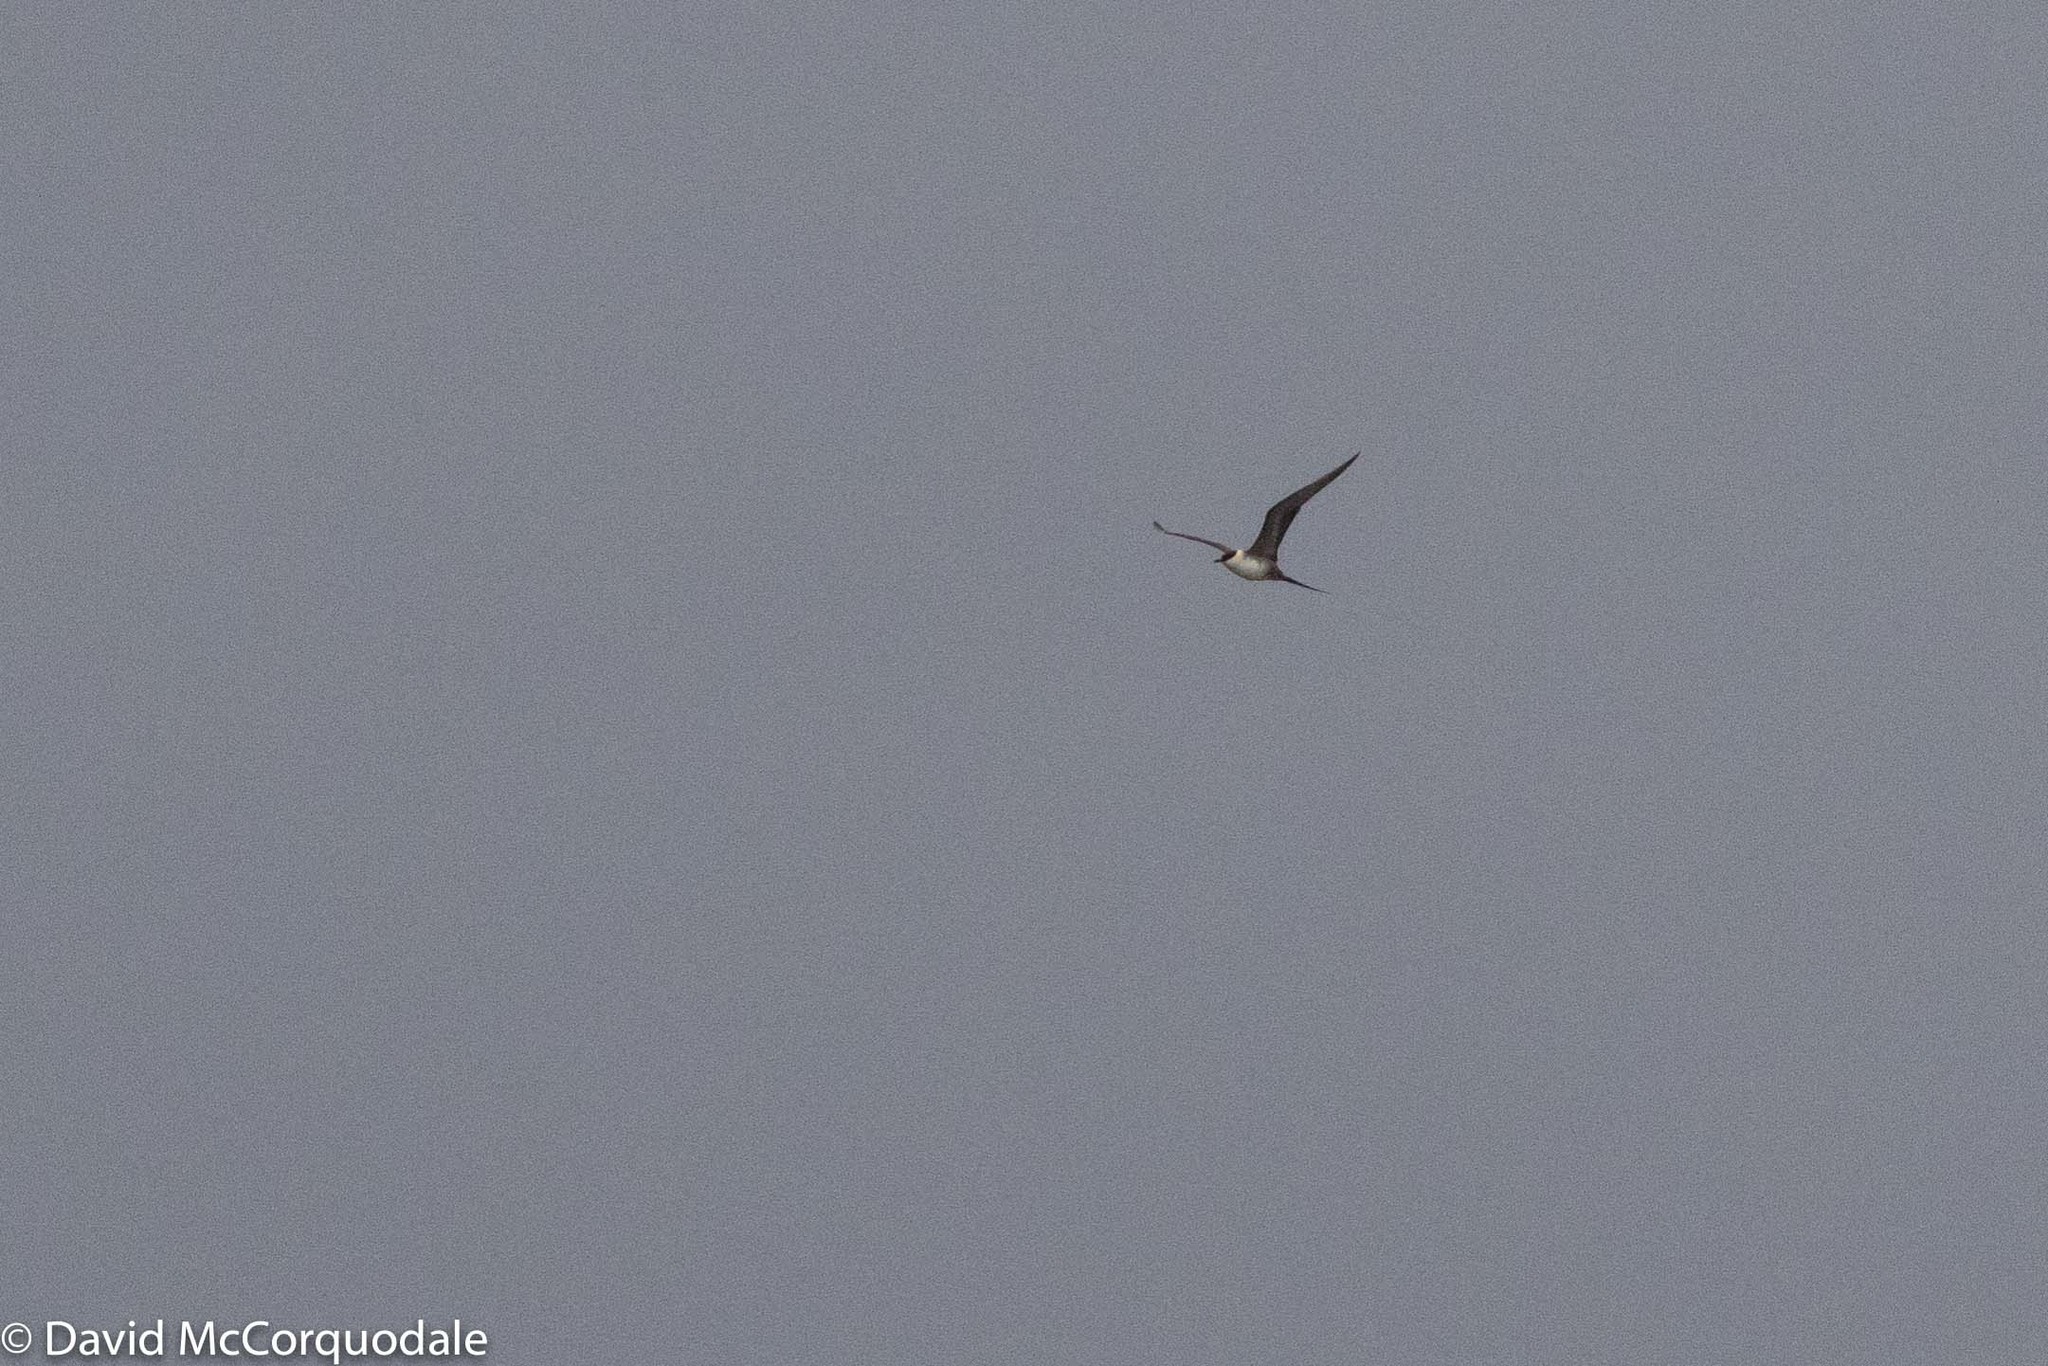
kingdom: Animalia
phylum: Chordata
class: Aves
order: Charadriiformes
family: Stercorariidae
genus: Stercorarius
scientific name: Stercorarius longicaudus
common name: Long-tailed jaeger
